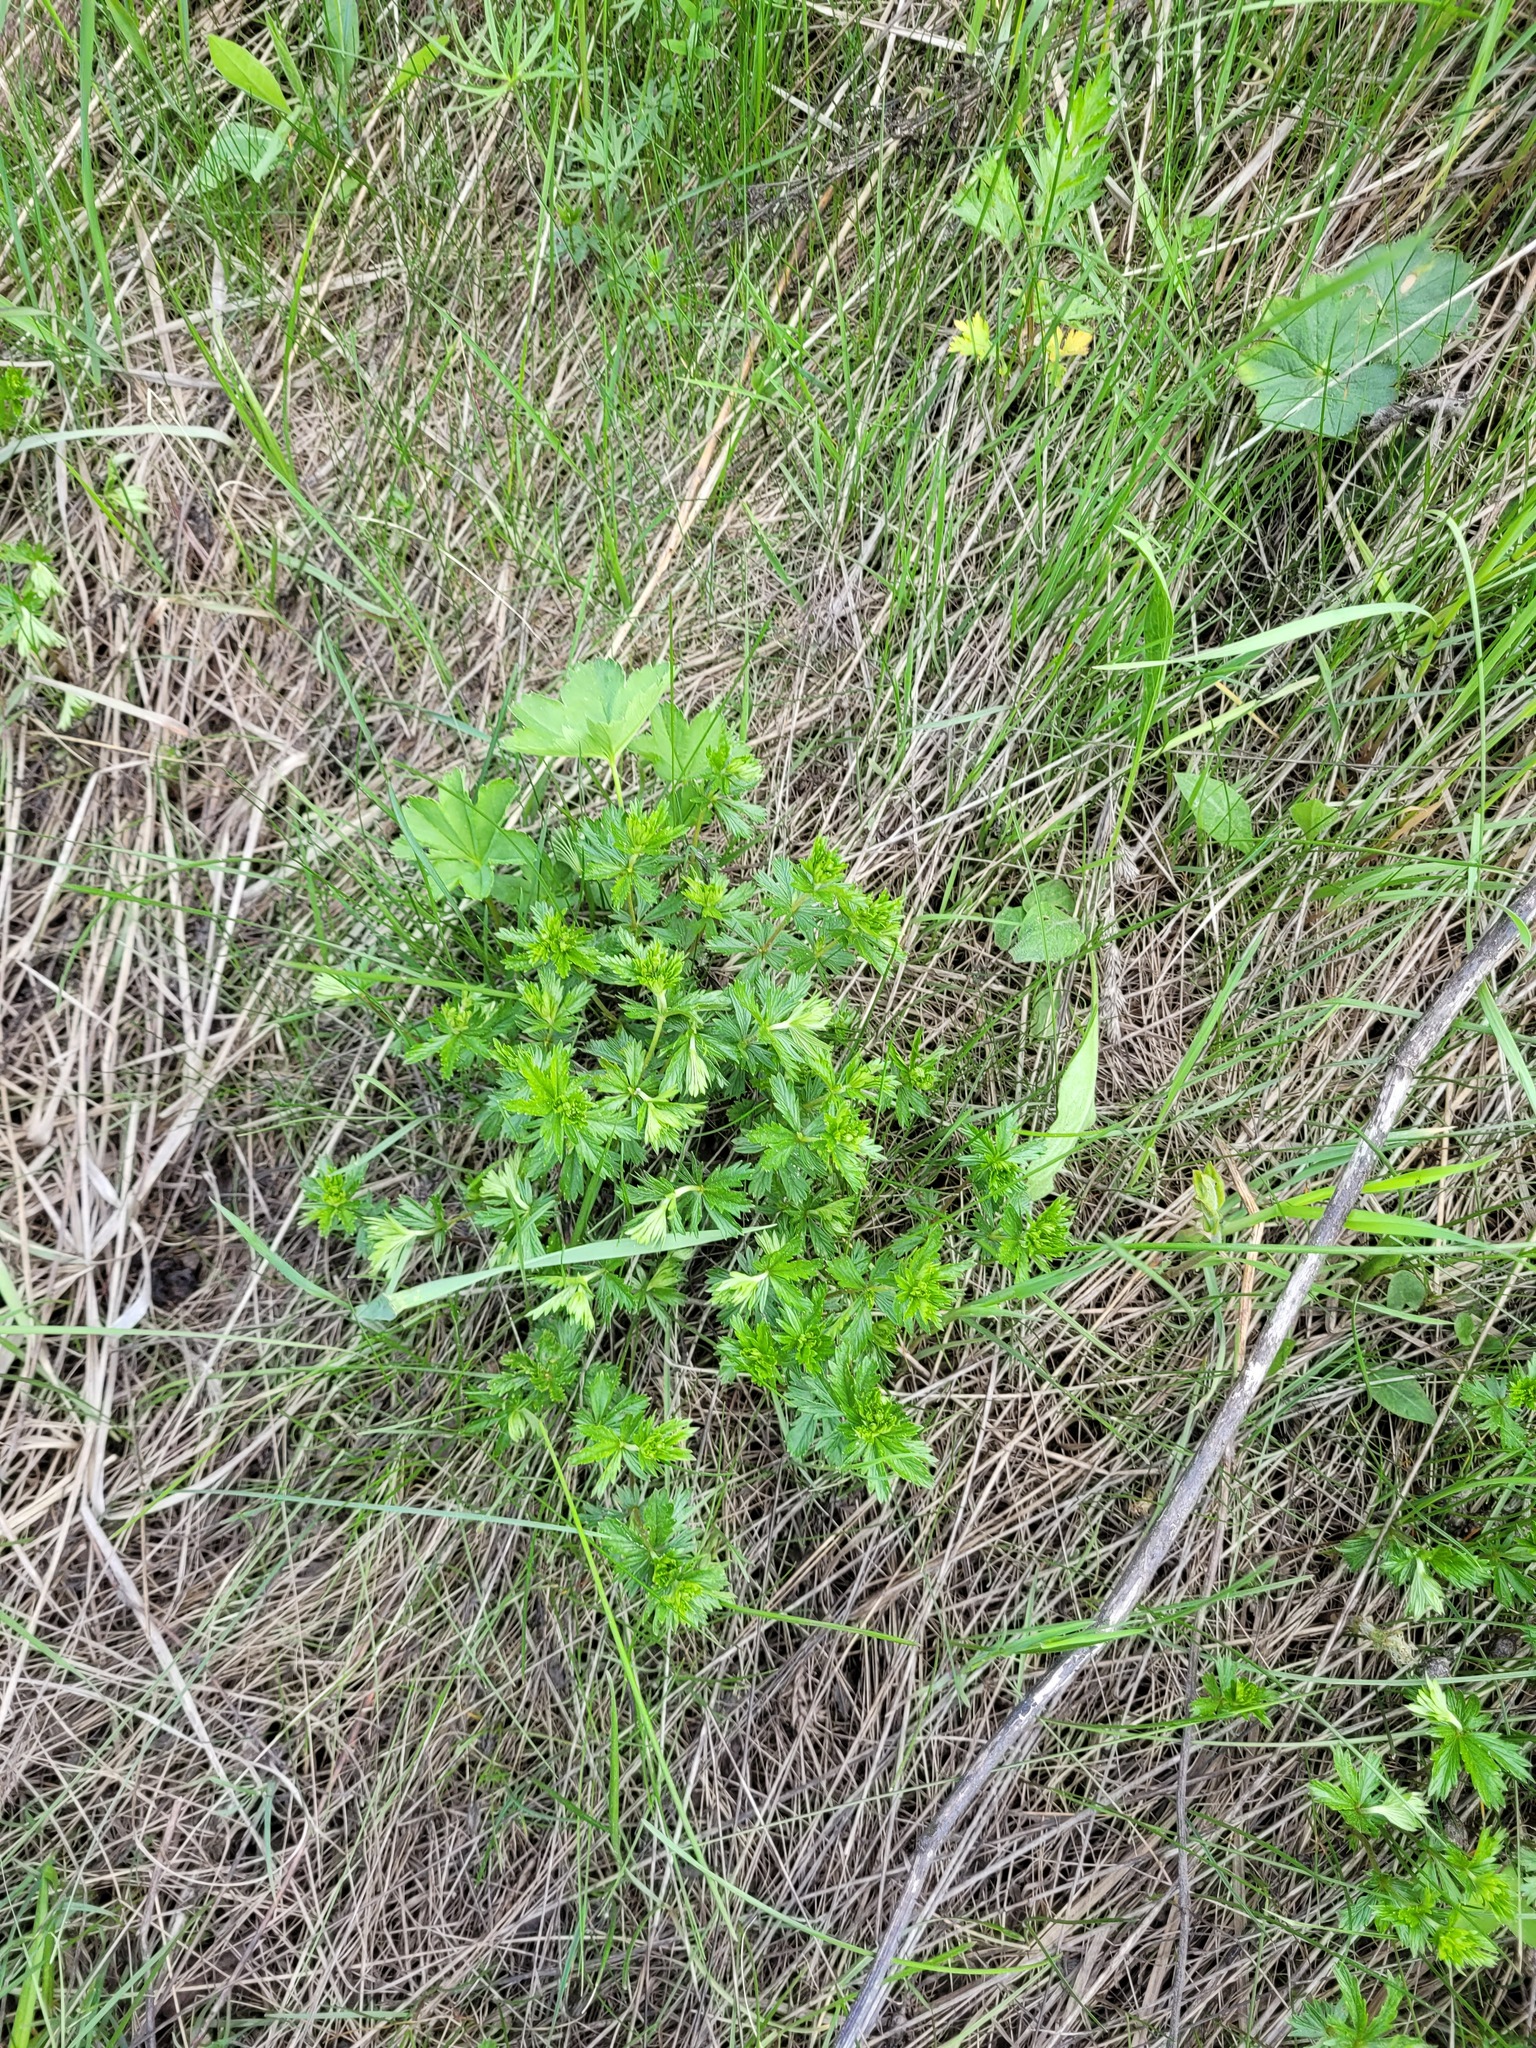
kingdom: Plantae
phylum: Tracheophyta
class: Magnoliopsida
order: Rosales
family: Rosaceae
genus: Potentilla
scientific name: Potentilla erecta
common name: Tormentil
